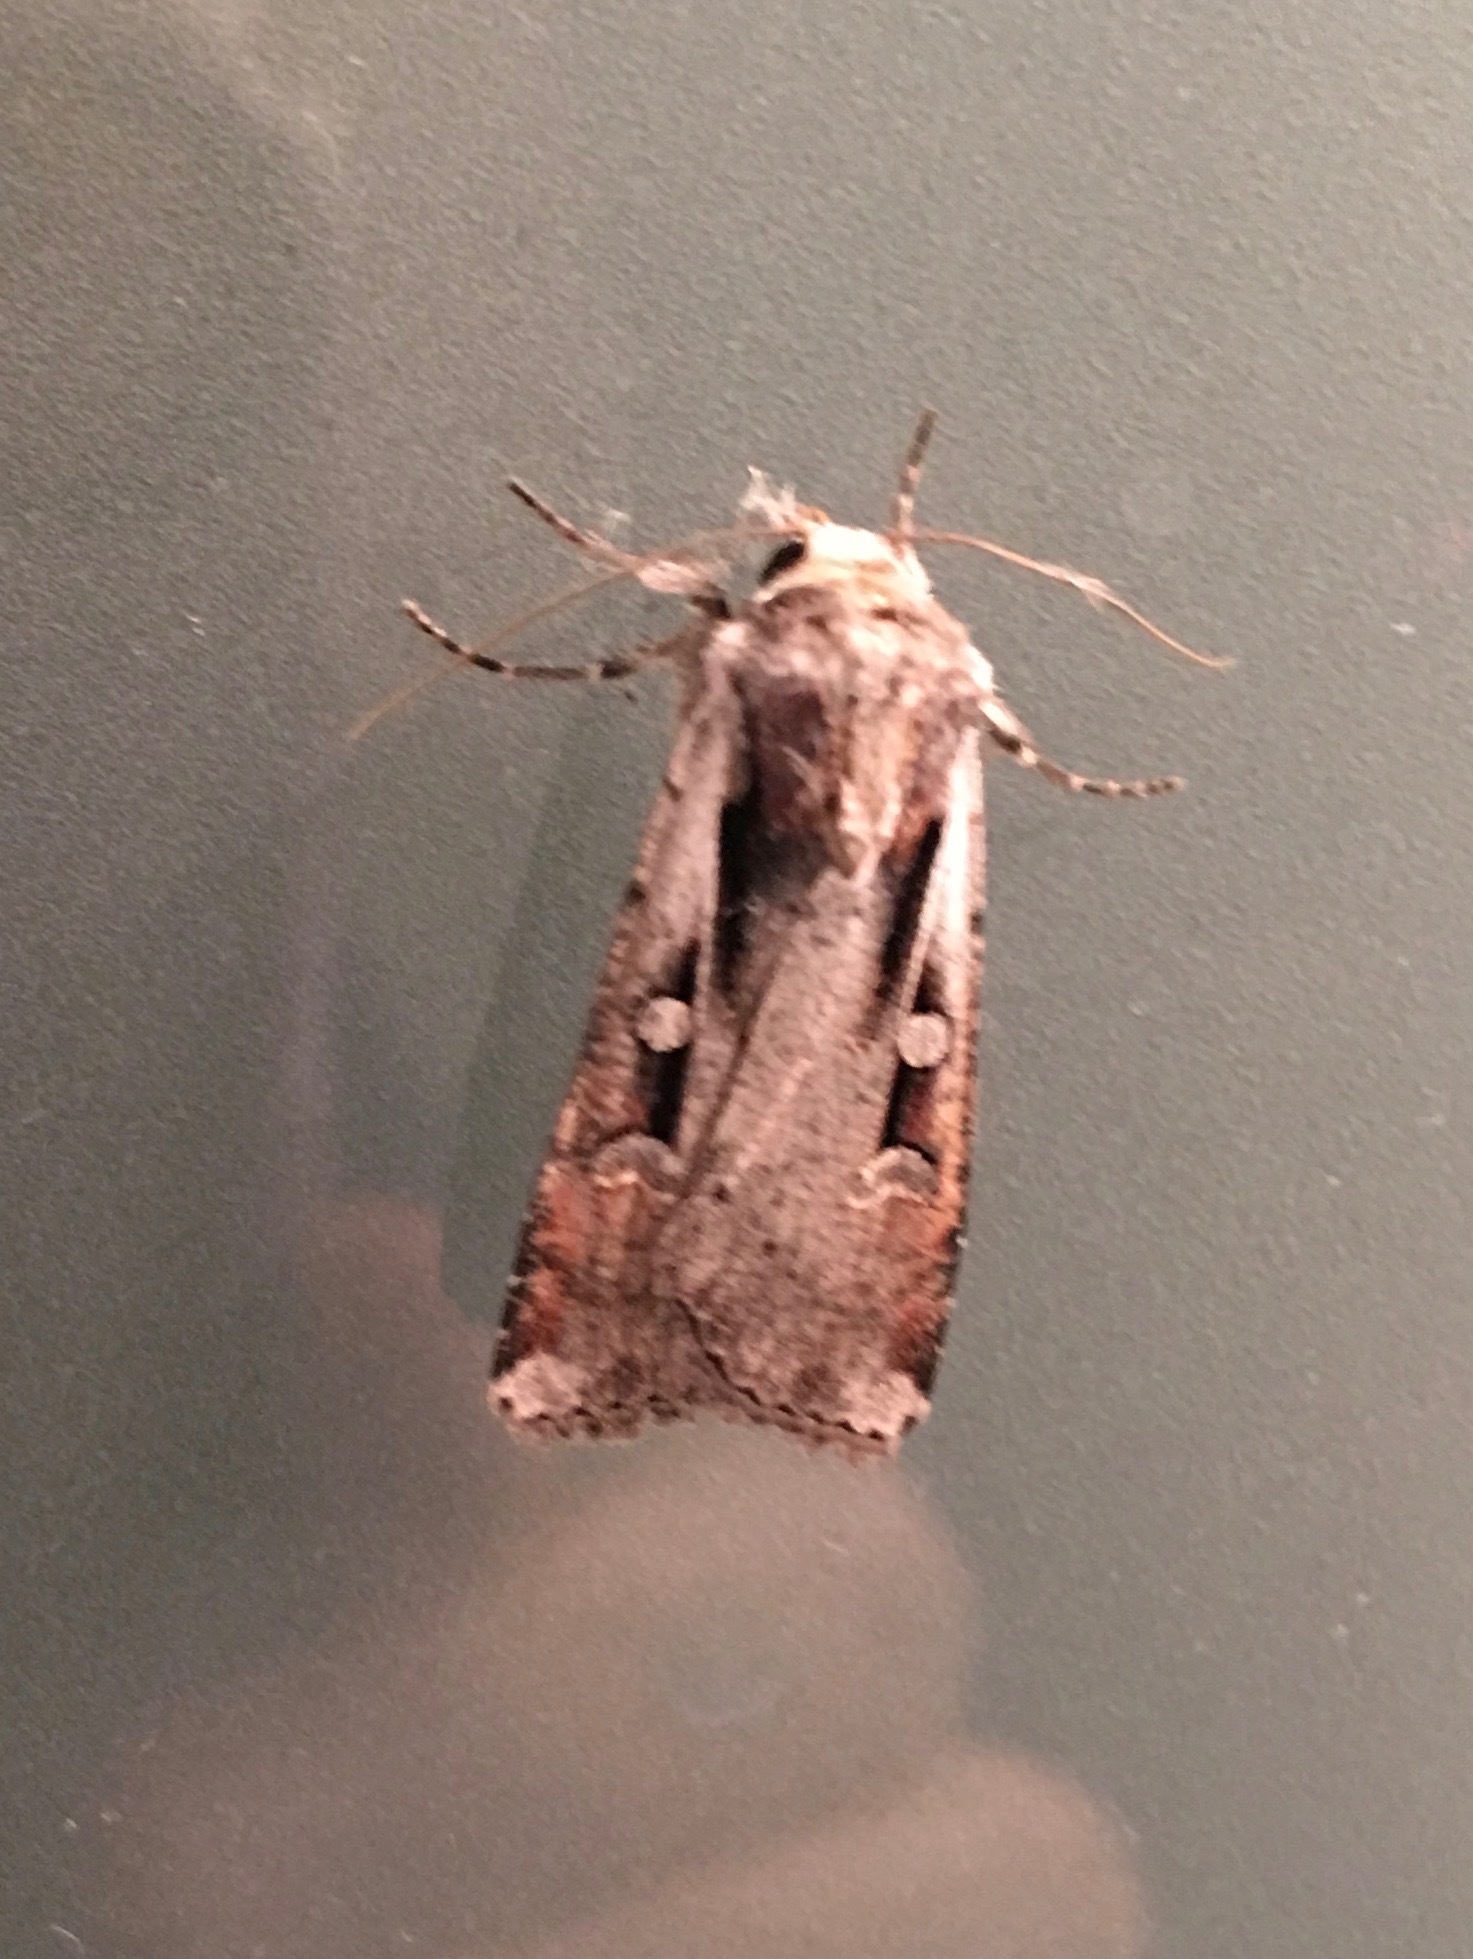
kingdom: Animalia
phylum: Arthropoda
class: Insecta
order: Lepidoptera
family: Noctuidae
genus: Hemieuxoa
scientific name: Hemieuxoa rudens
